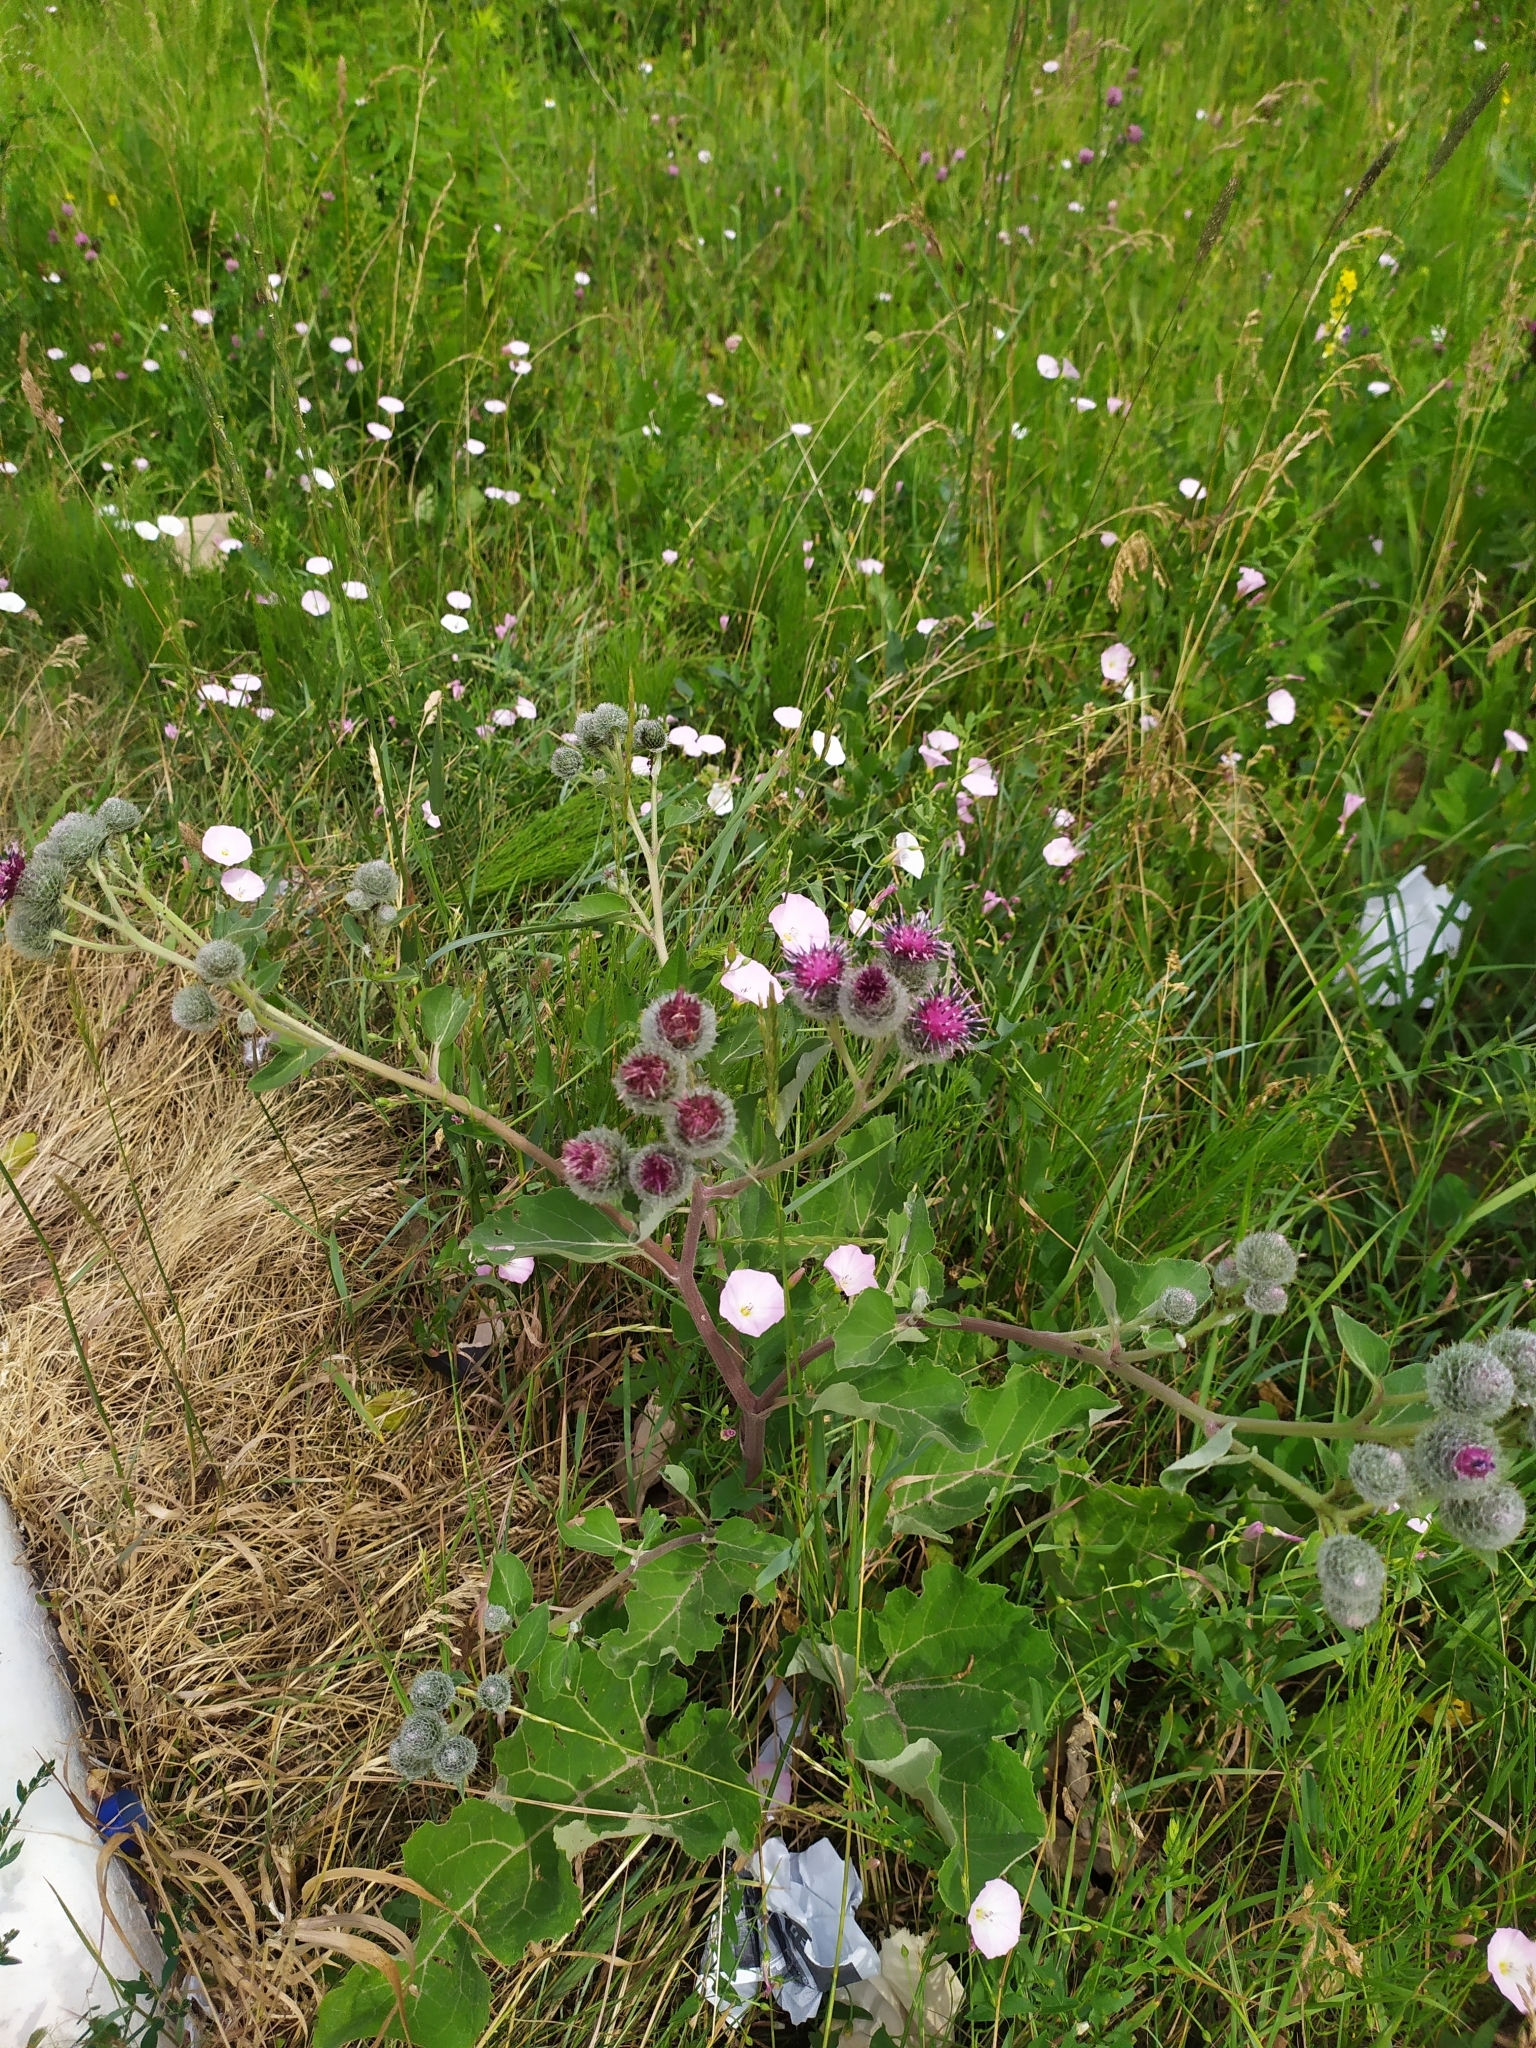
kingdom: Plantae
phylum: Tracheophyta
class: Magnoliopsida
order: Asterales
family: Asteraceae
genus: Arctium
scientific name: Arctium tomentosum
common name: Woolly burdock
